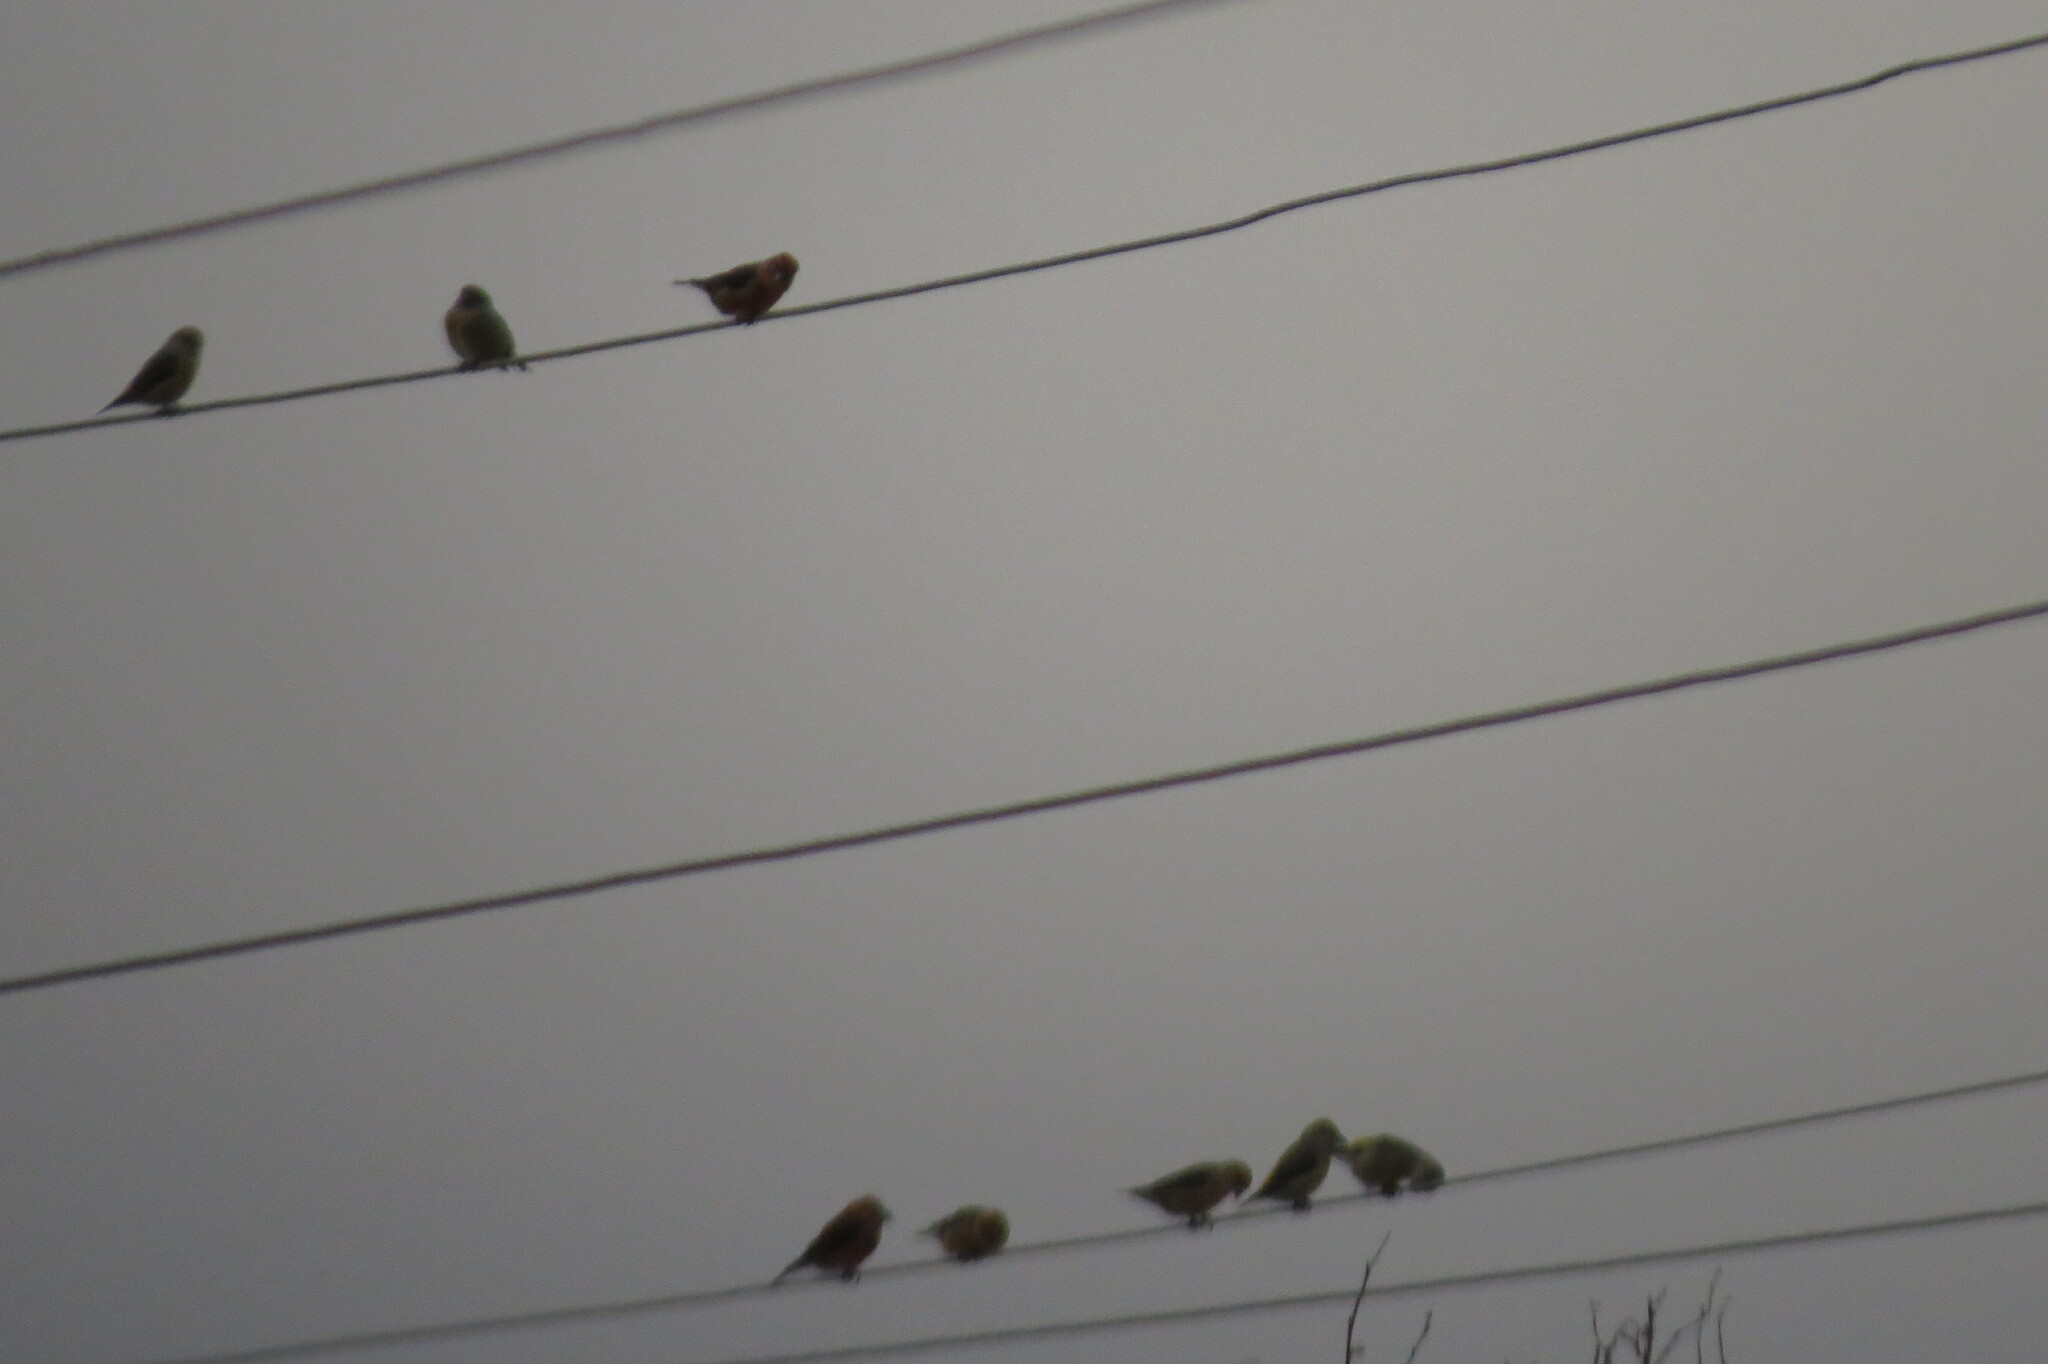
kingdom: Animalia
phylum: Chordata
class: Aves
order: Passeriformes
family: Fringillidae
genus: Loxia
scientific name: Loxia curvirostra
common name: Red crossbill
